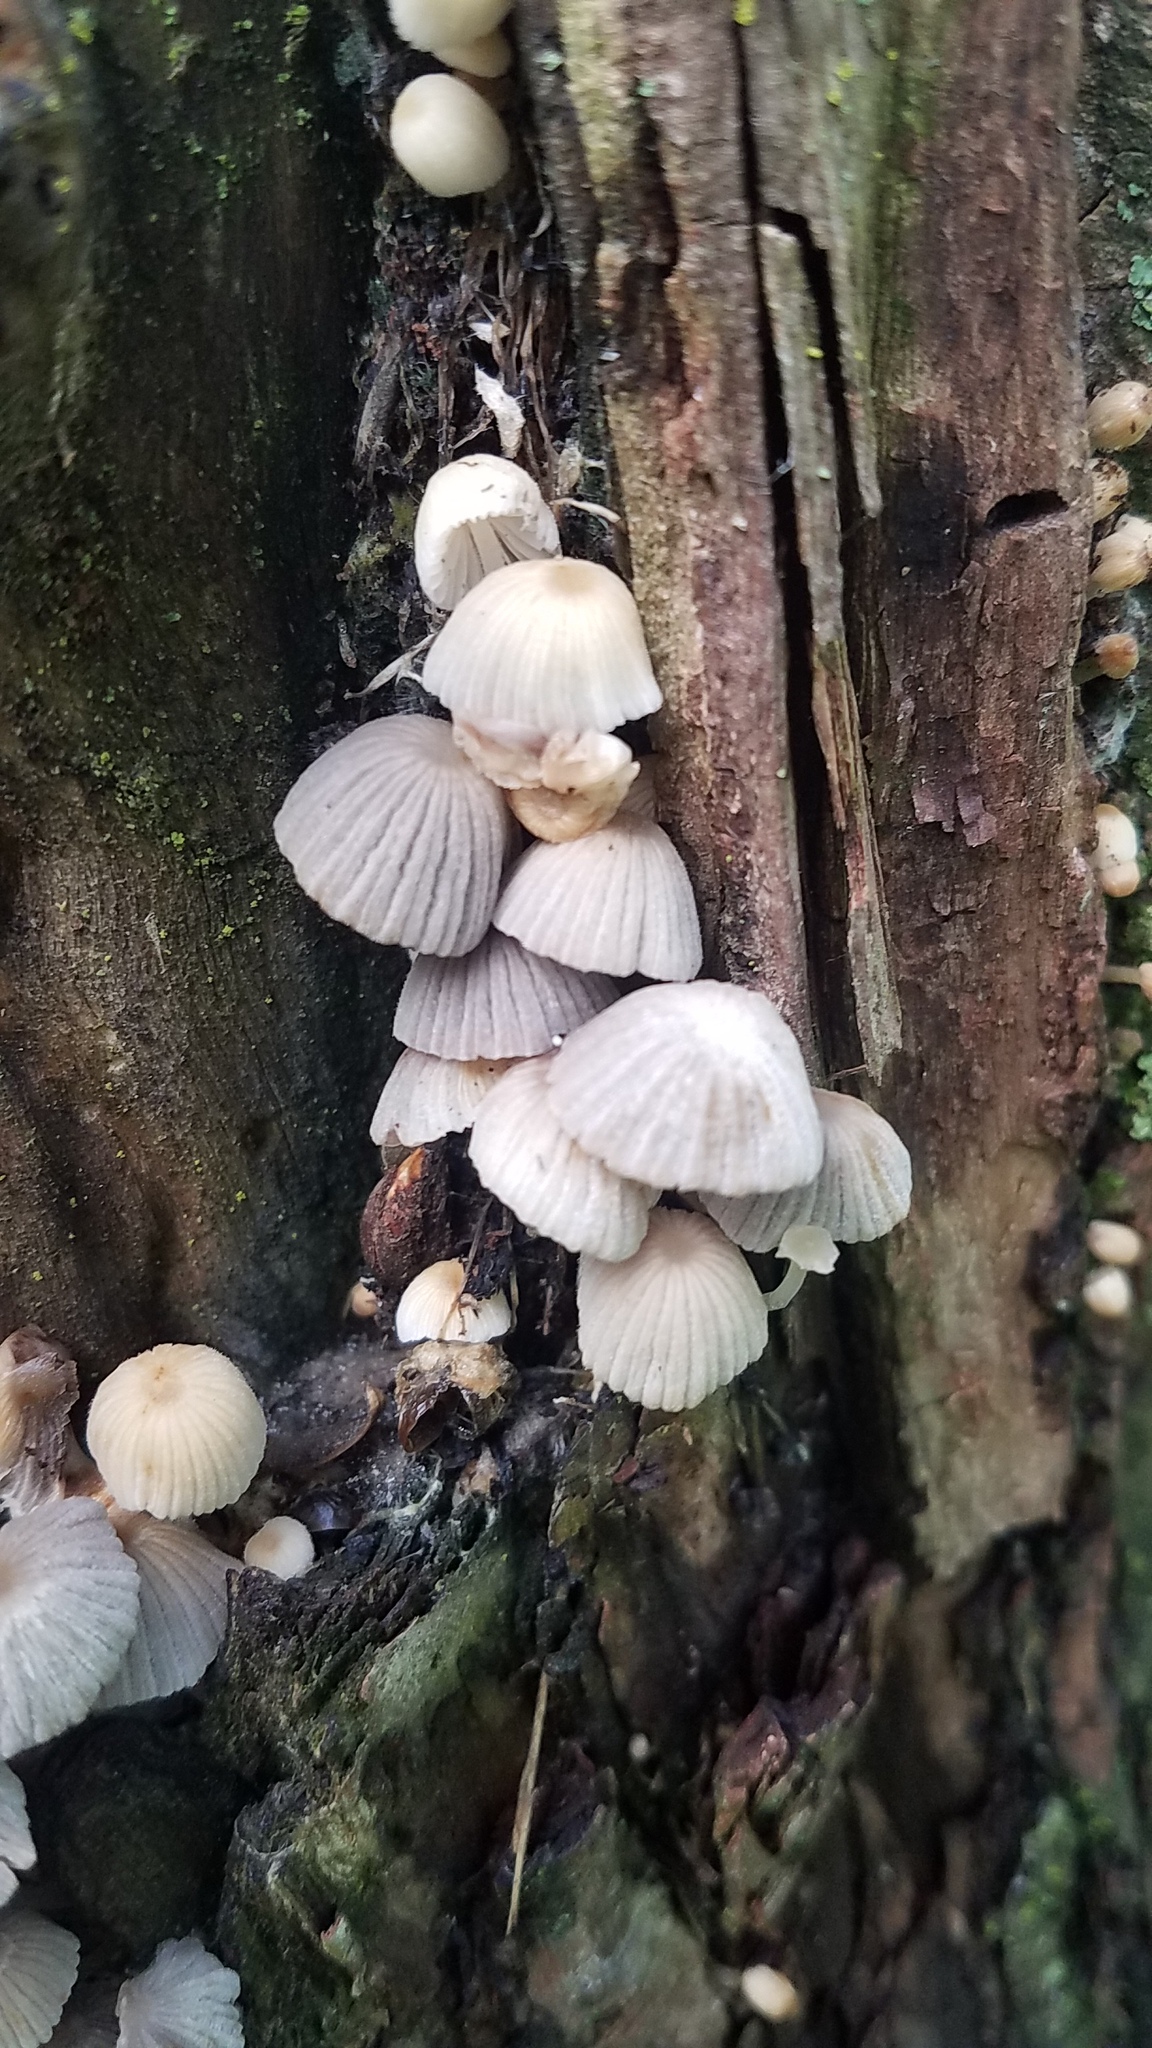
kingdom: Fungi
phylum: Basidiomycota
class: Agaricomycetes
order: Agaricales
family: Psathyrellaceae
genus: Coprinellus
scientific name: Coprinellus disseminatus
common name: Fairies' bonnets
